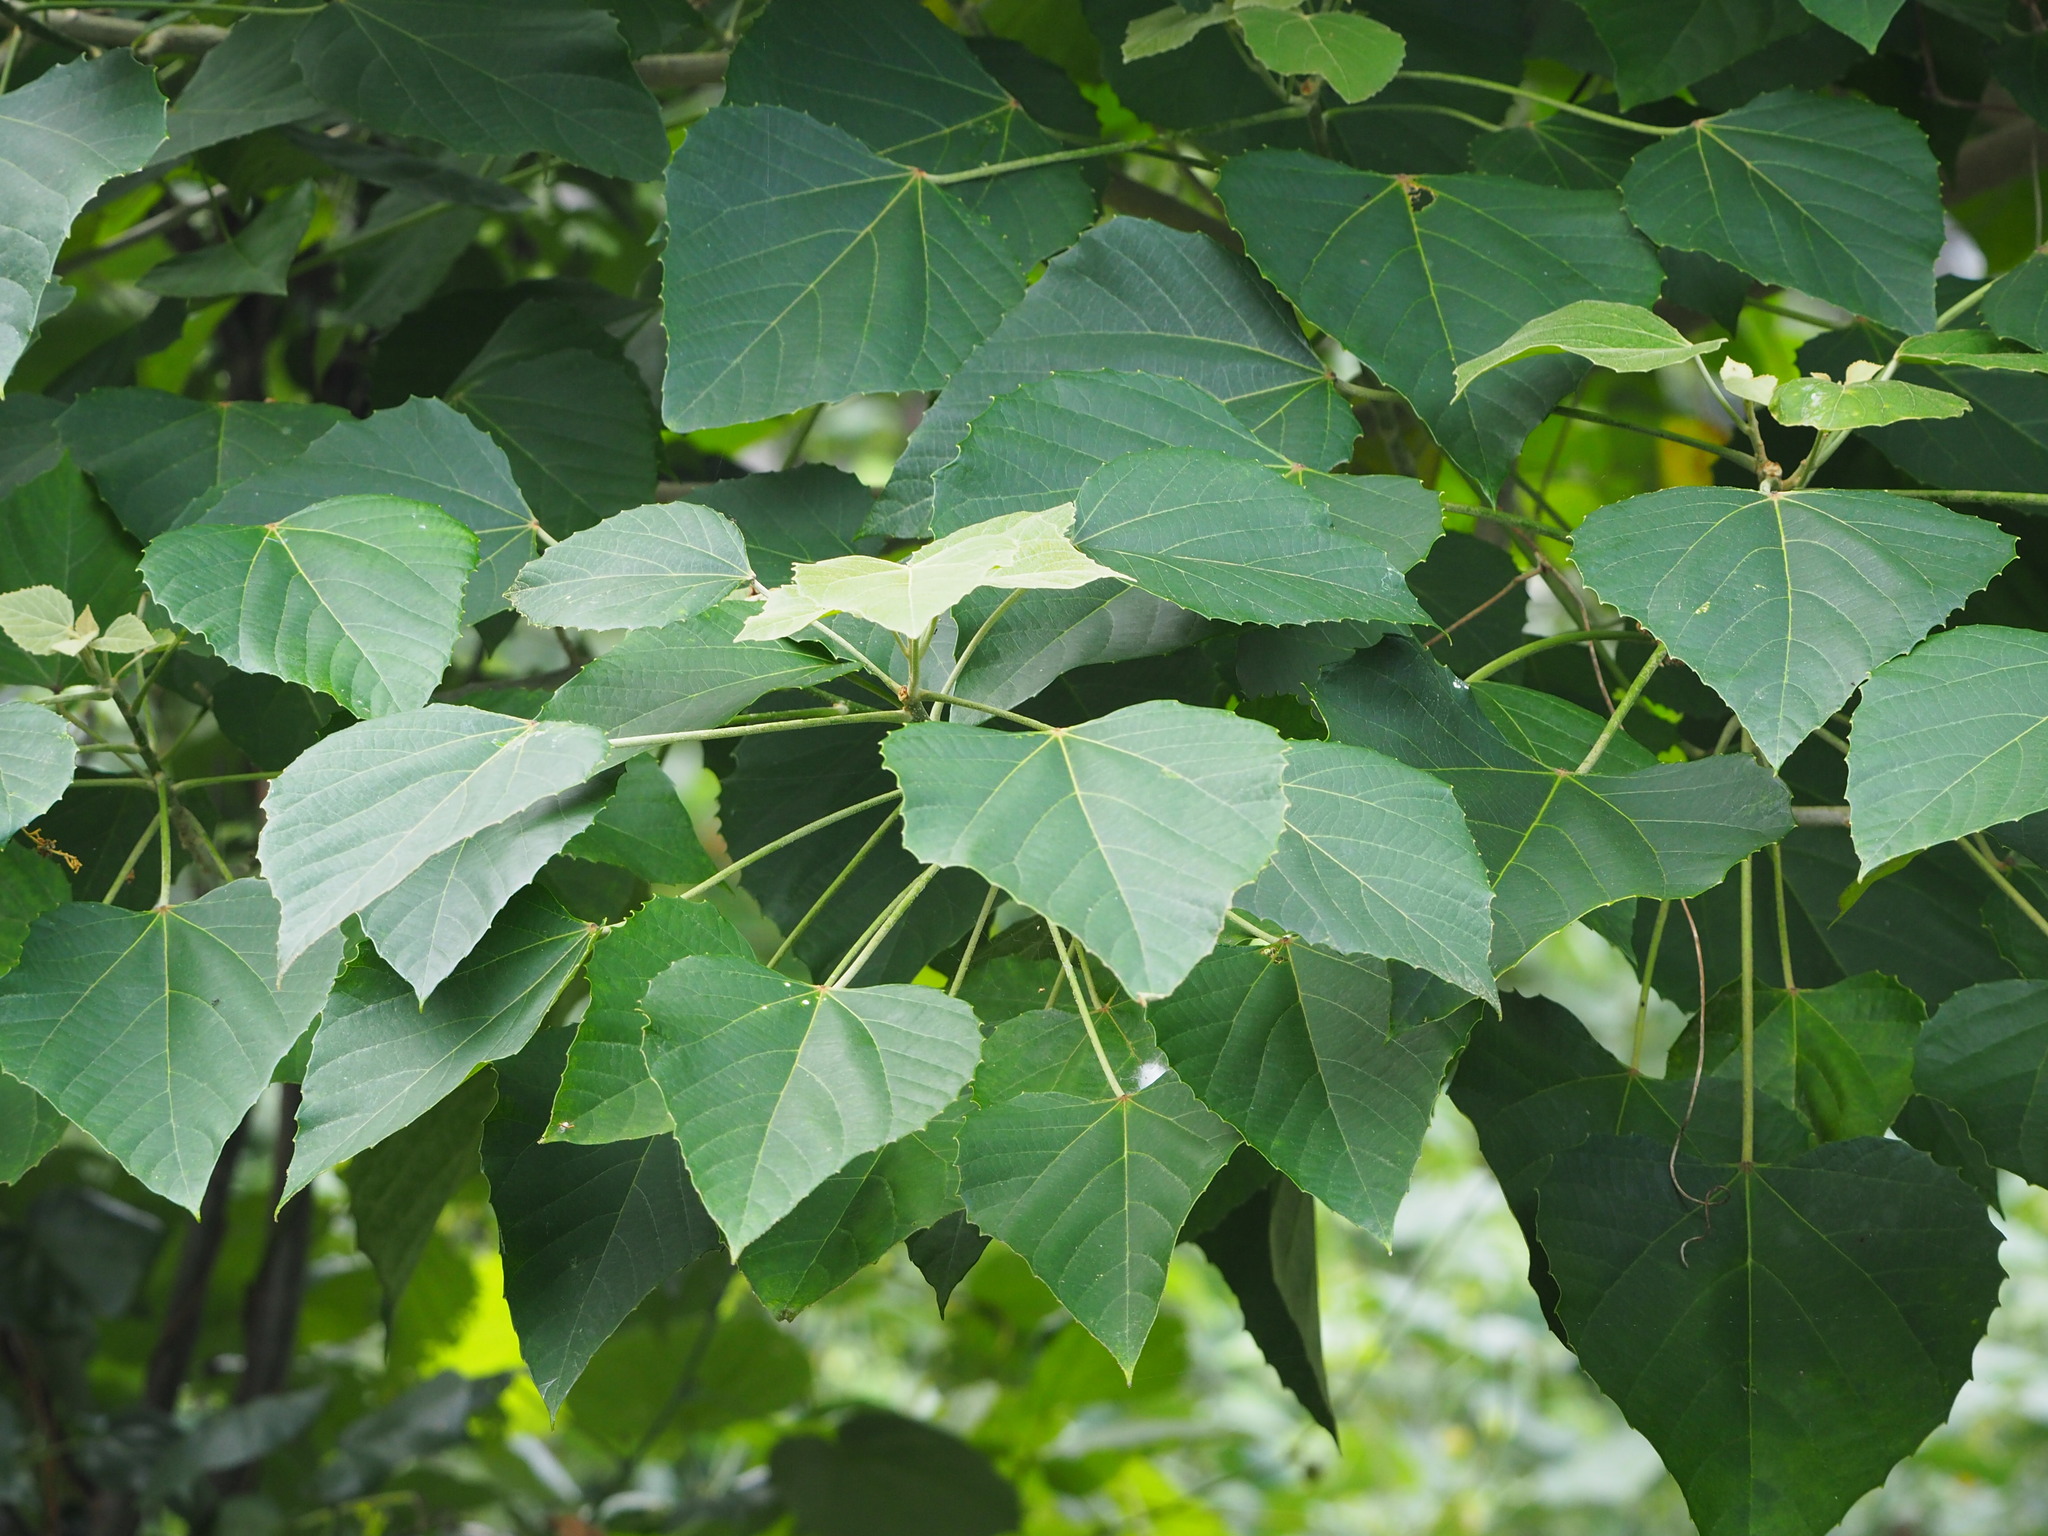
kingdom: Plantae
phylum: Tracheophyta
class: Magnoliopsida
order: Malpighiales
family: Euphorbiaceae
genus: Melanolepis
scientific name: Melanolepis multiglandulosa
